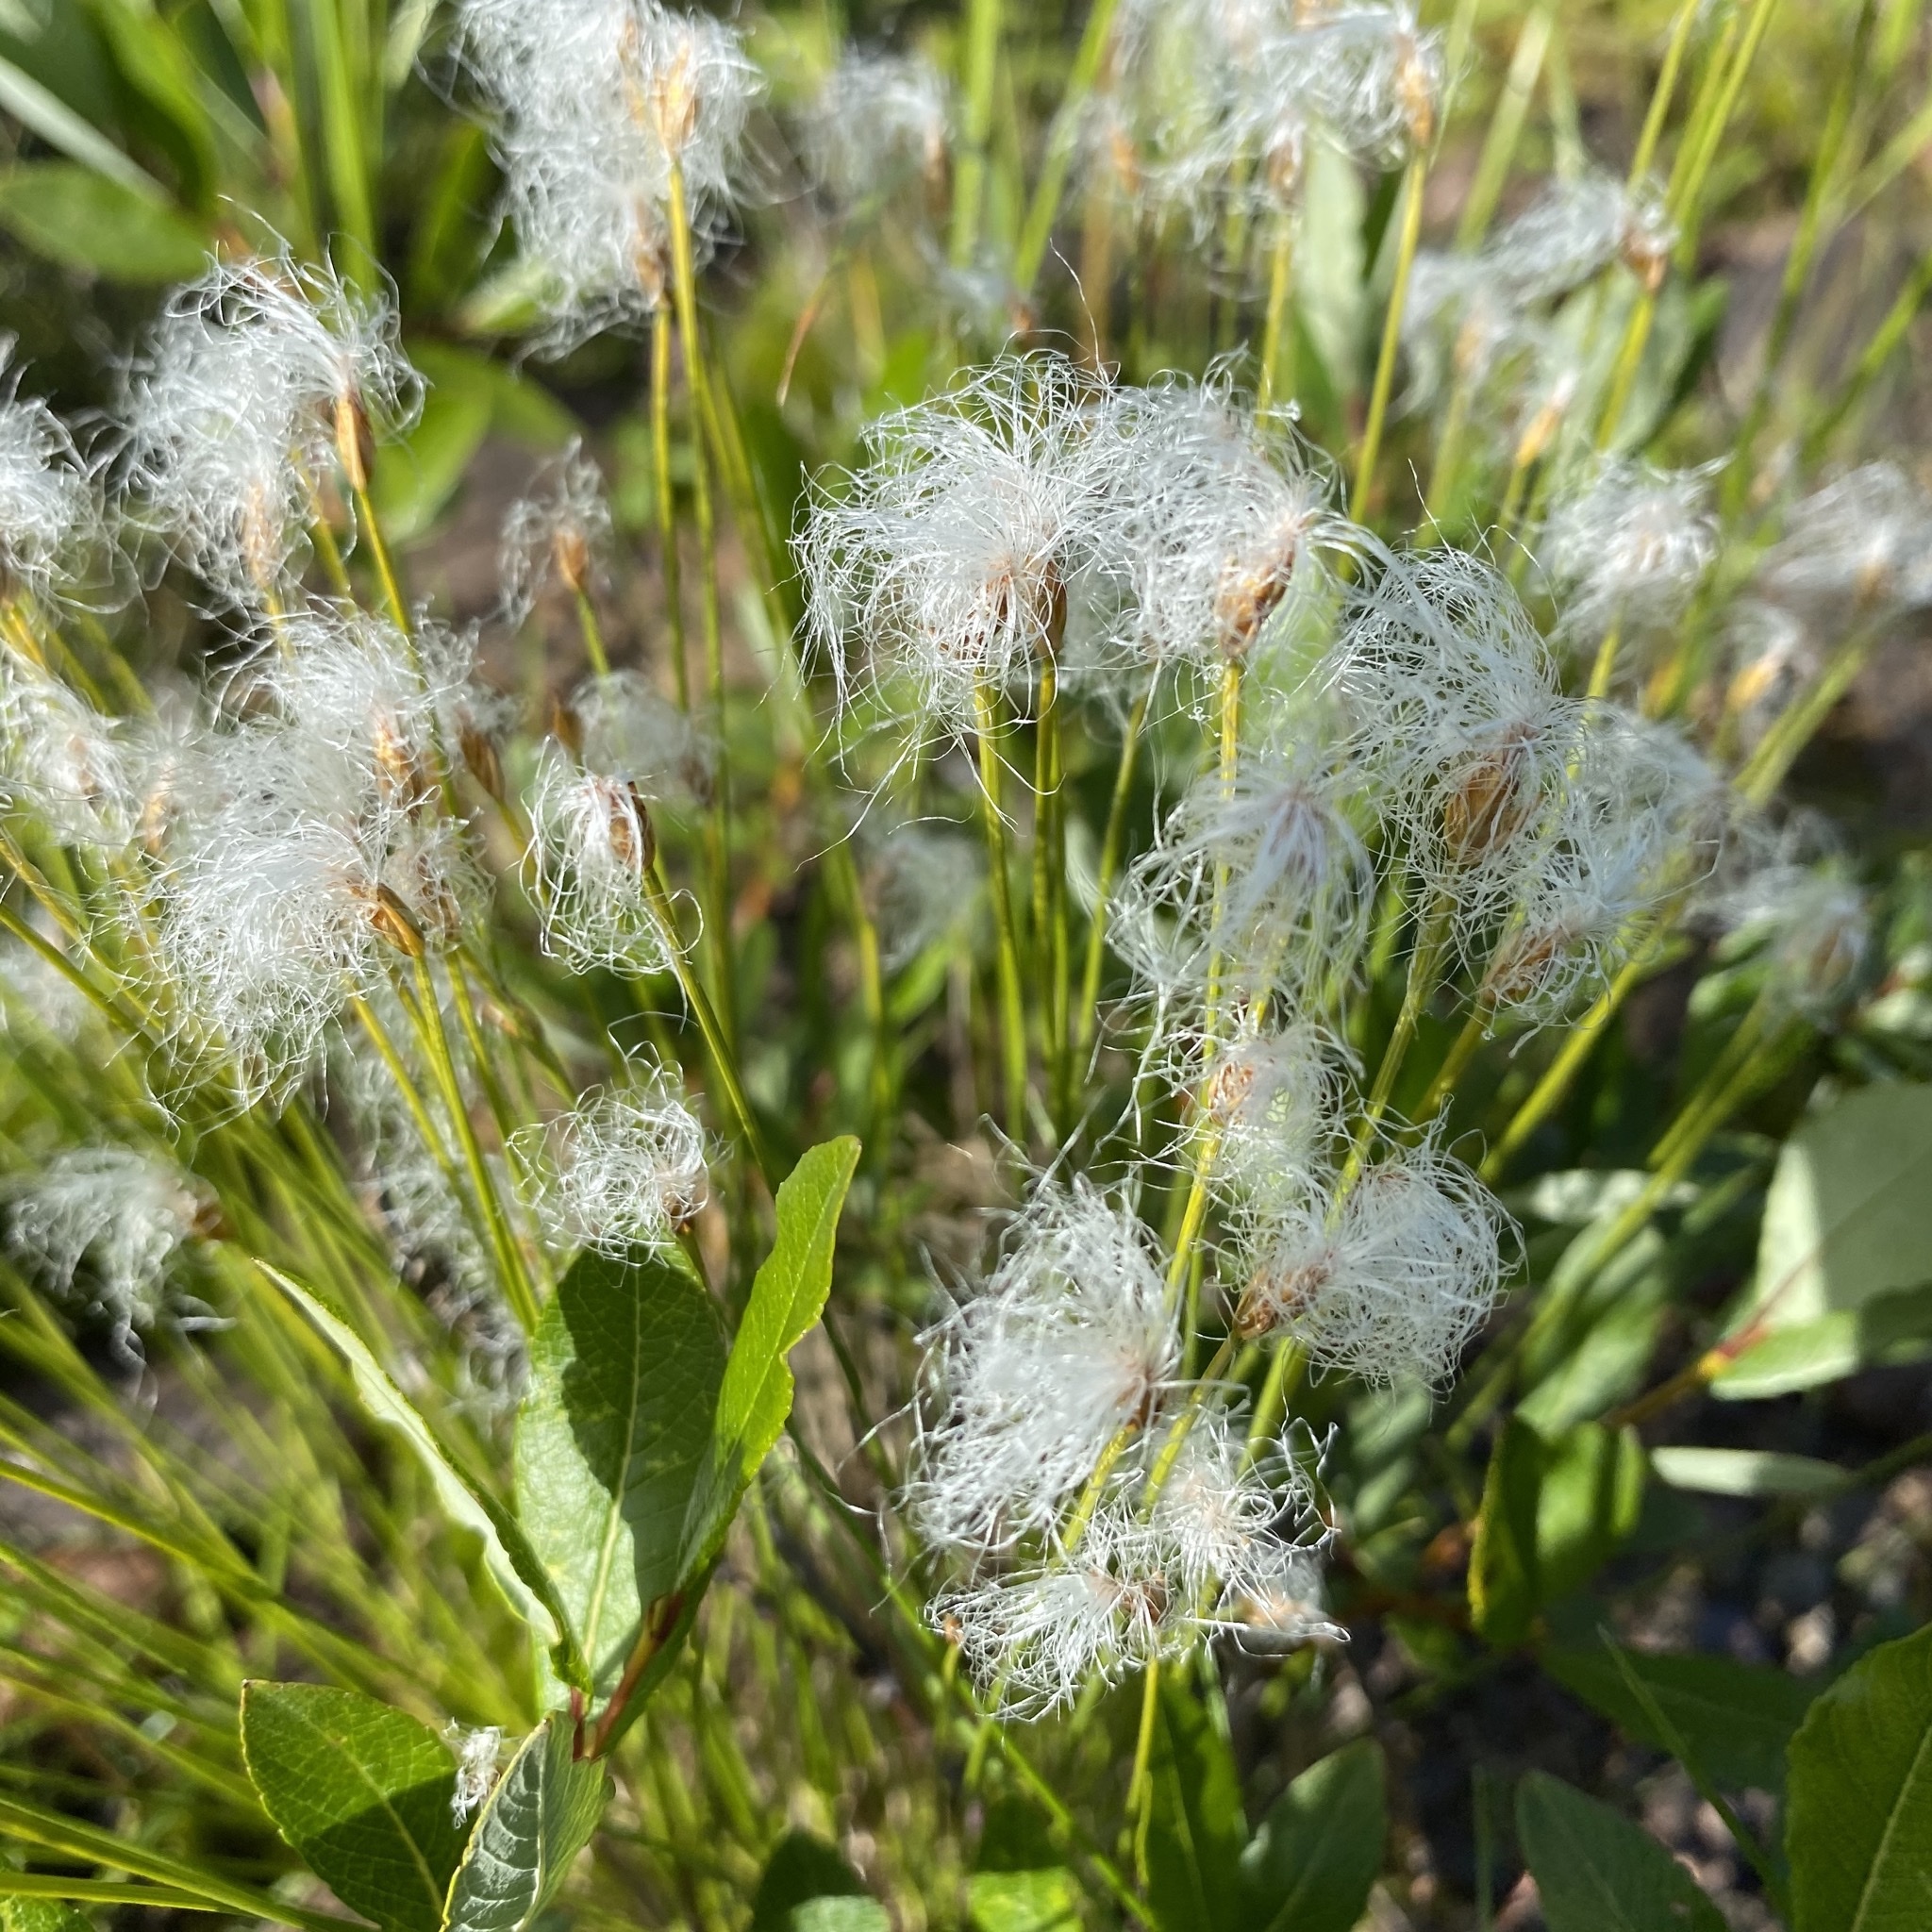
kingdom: Plantae
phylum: Tracheophyta
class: Liliopsida
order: Poales
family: Cyperaceae
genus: Trichophorum
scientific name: Trichophorum alpinum
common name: Alpine bulrush
